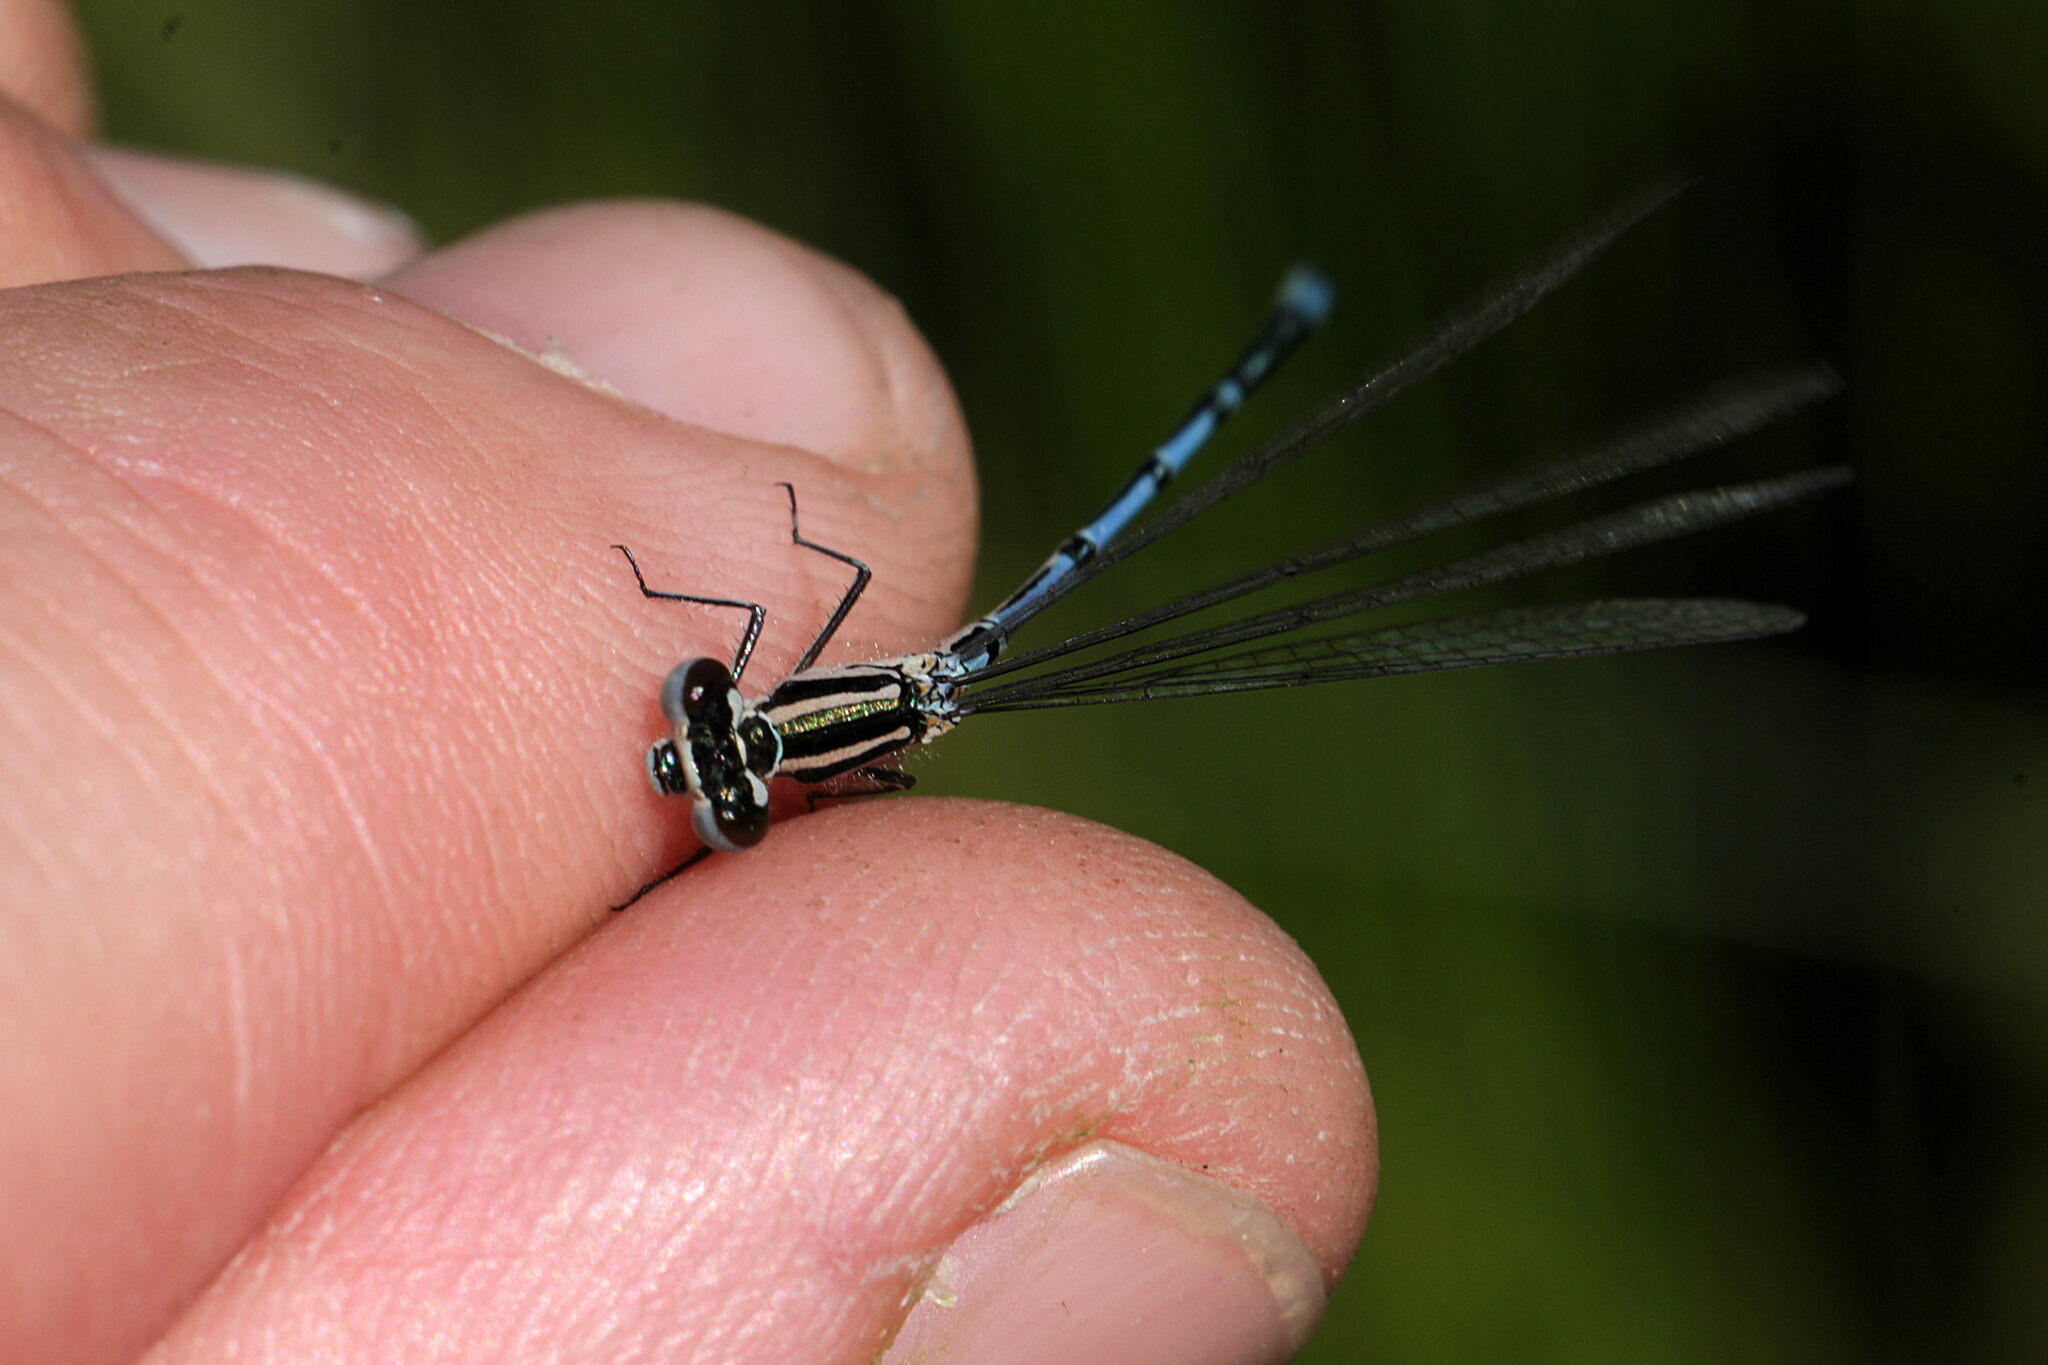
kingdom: Animalia
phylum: Arthropoda
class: Insecta
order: Odonata
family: Coenagrionidae
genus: Coenagrion
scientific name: Coenagrion puella
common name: Azure damselfly
